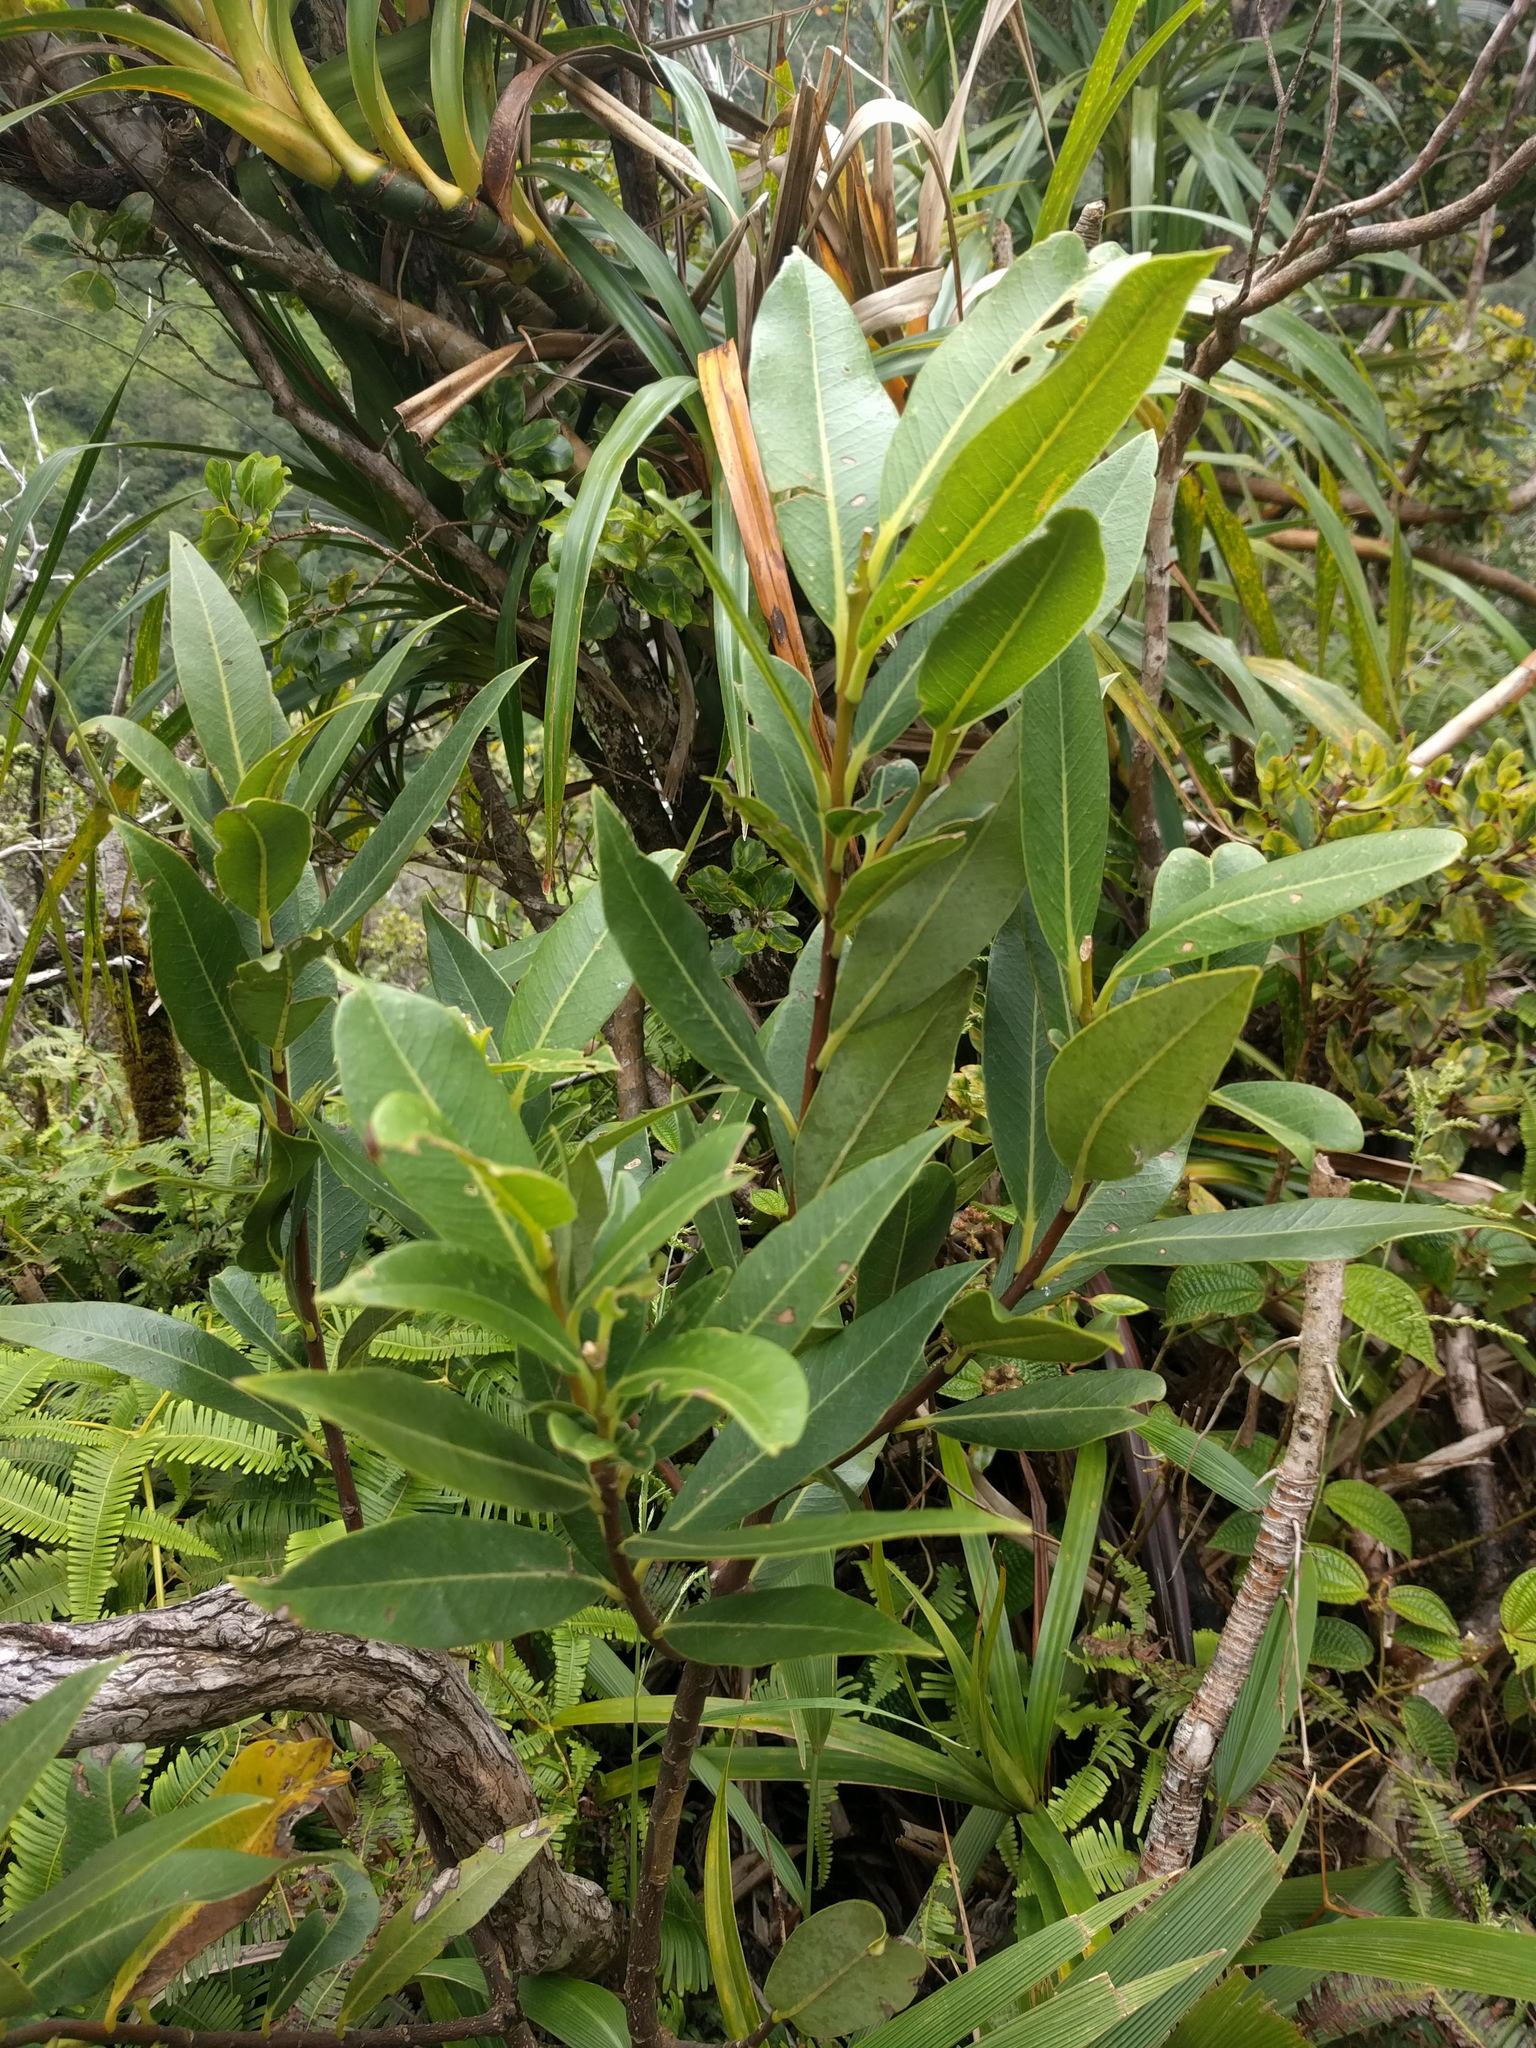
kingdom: Plantae
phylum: Tracheophyta
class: Magnoliopsida
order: Malvales
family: Thymelaeaceae
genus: Wikstroemia
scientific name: Wikstroemia oahuensis
